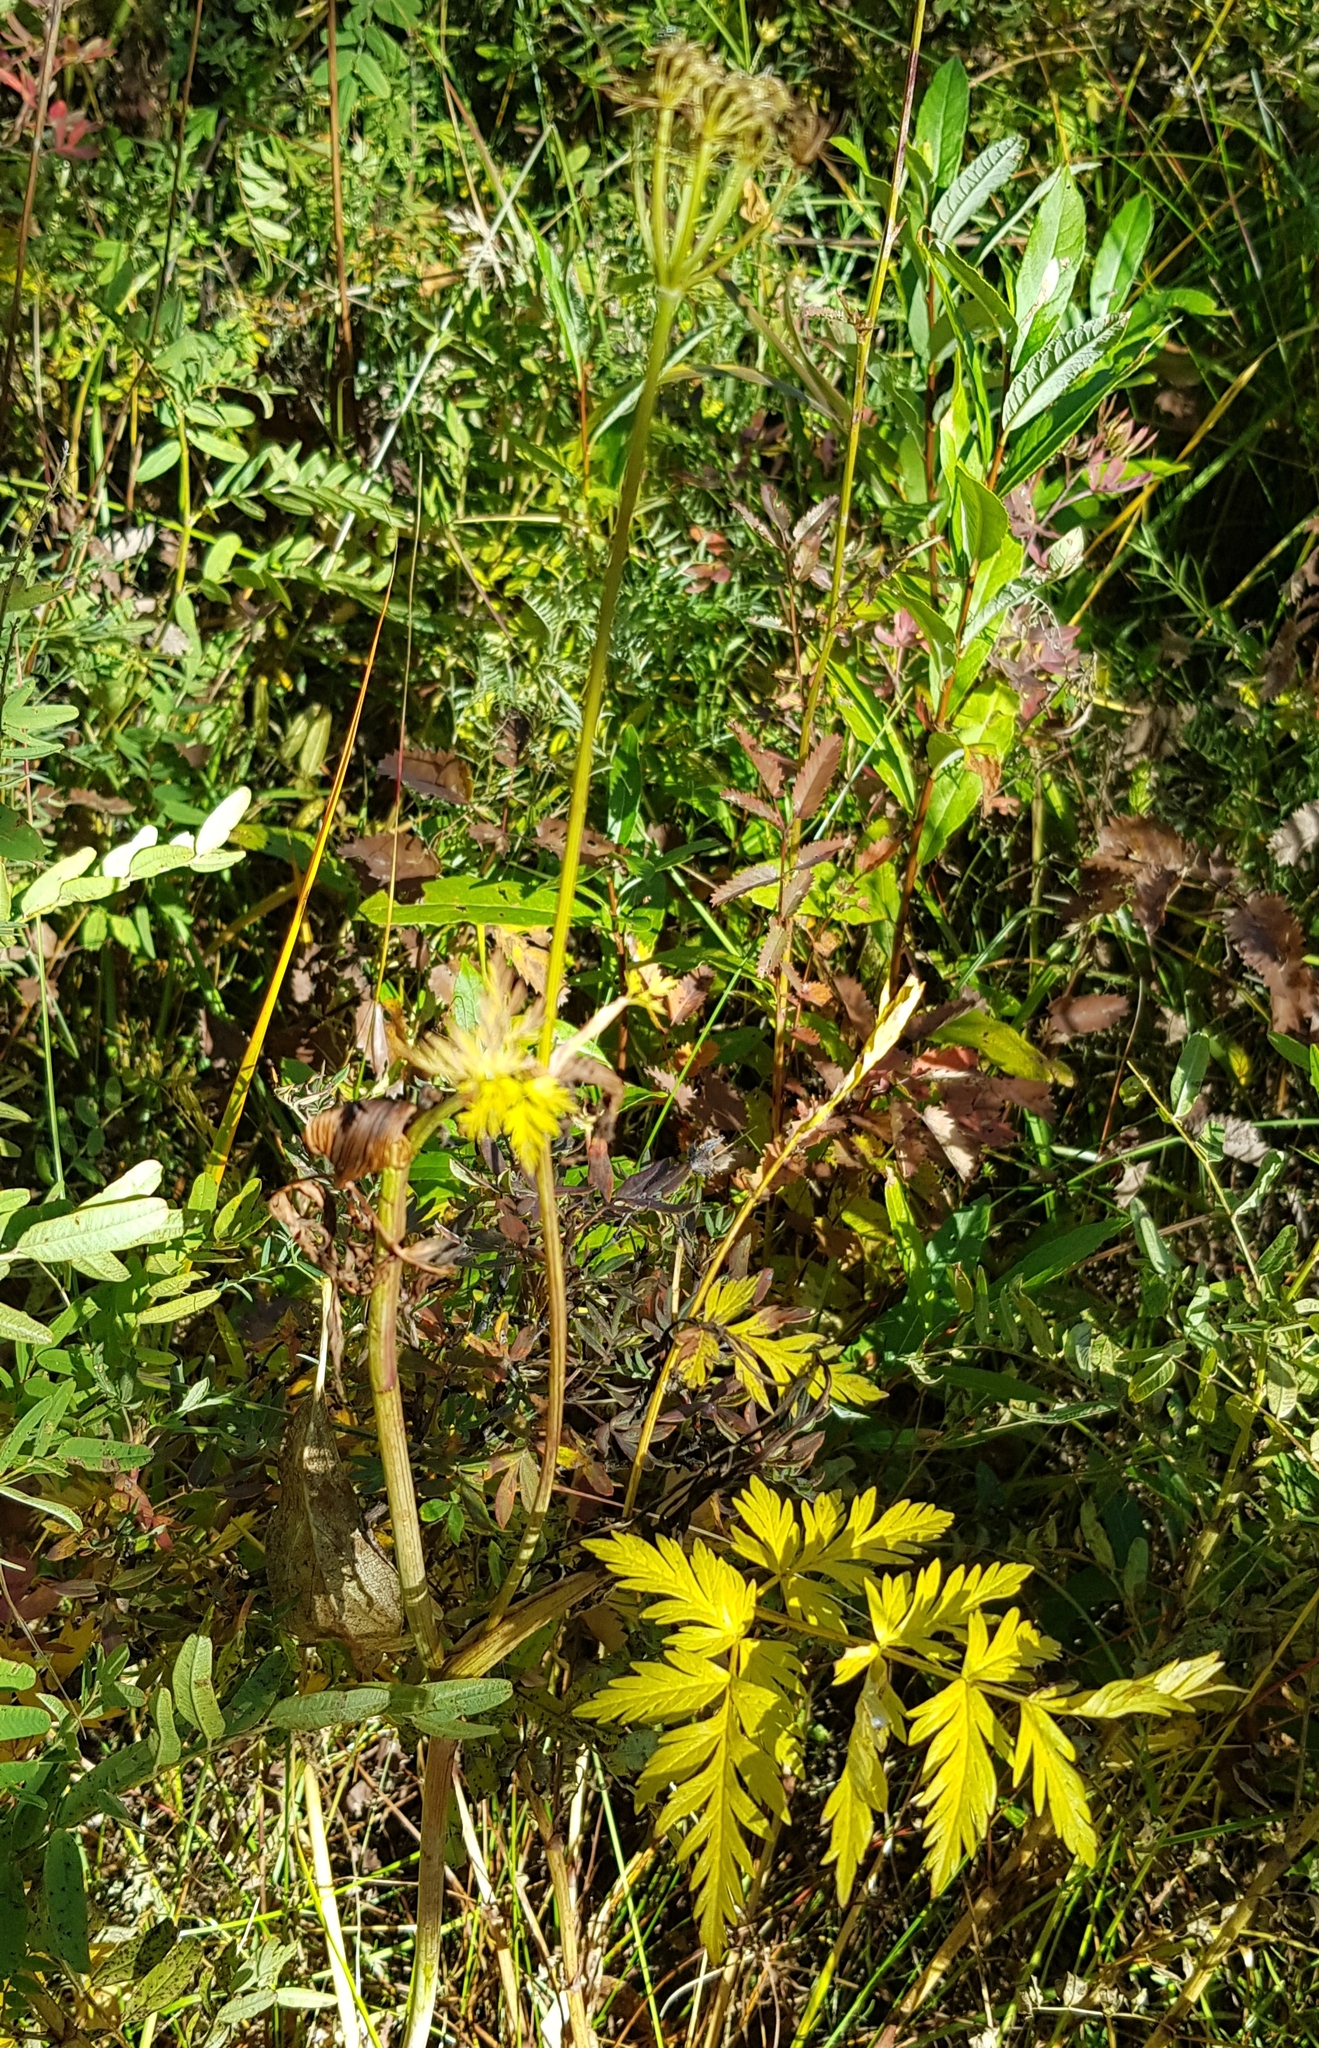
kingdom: Plantae
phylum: Tracheophyta
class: Magnoliopsida
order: Apiales
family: Apiaceae
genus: Conioselinum
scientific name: Conioselinum tataricum
